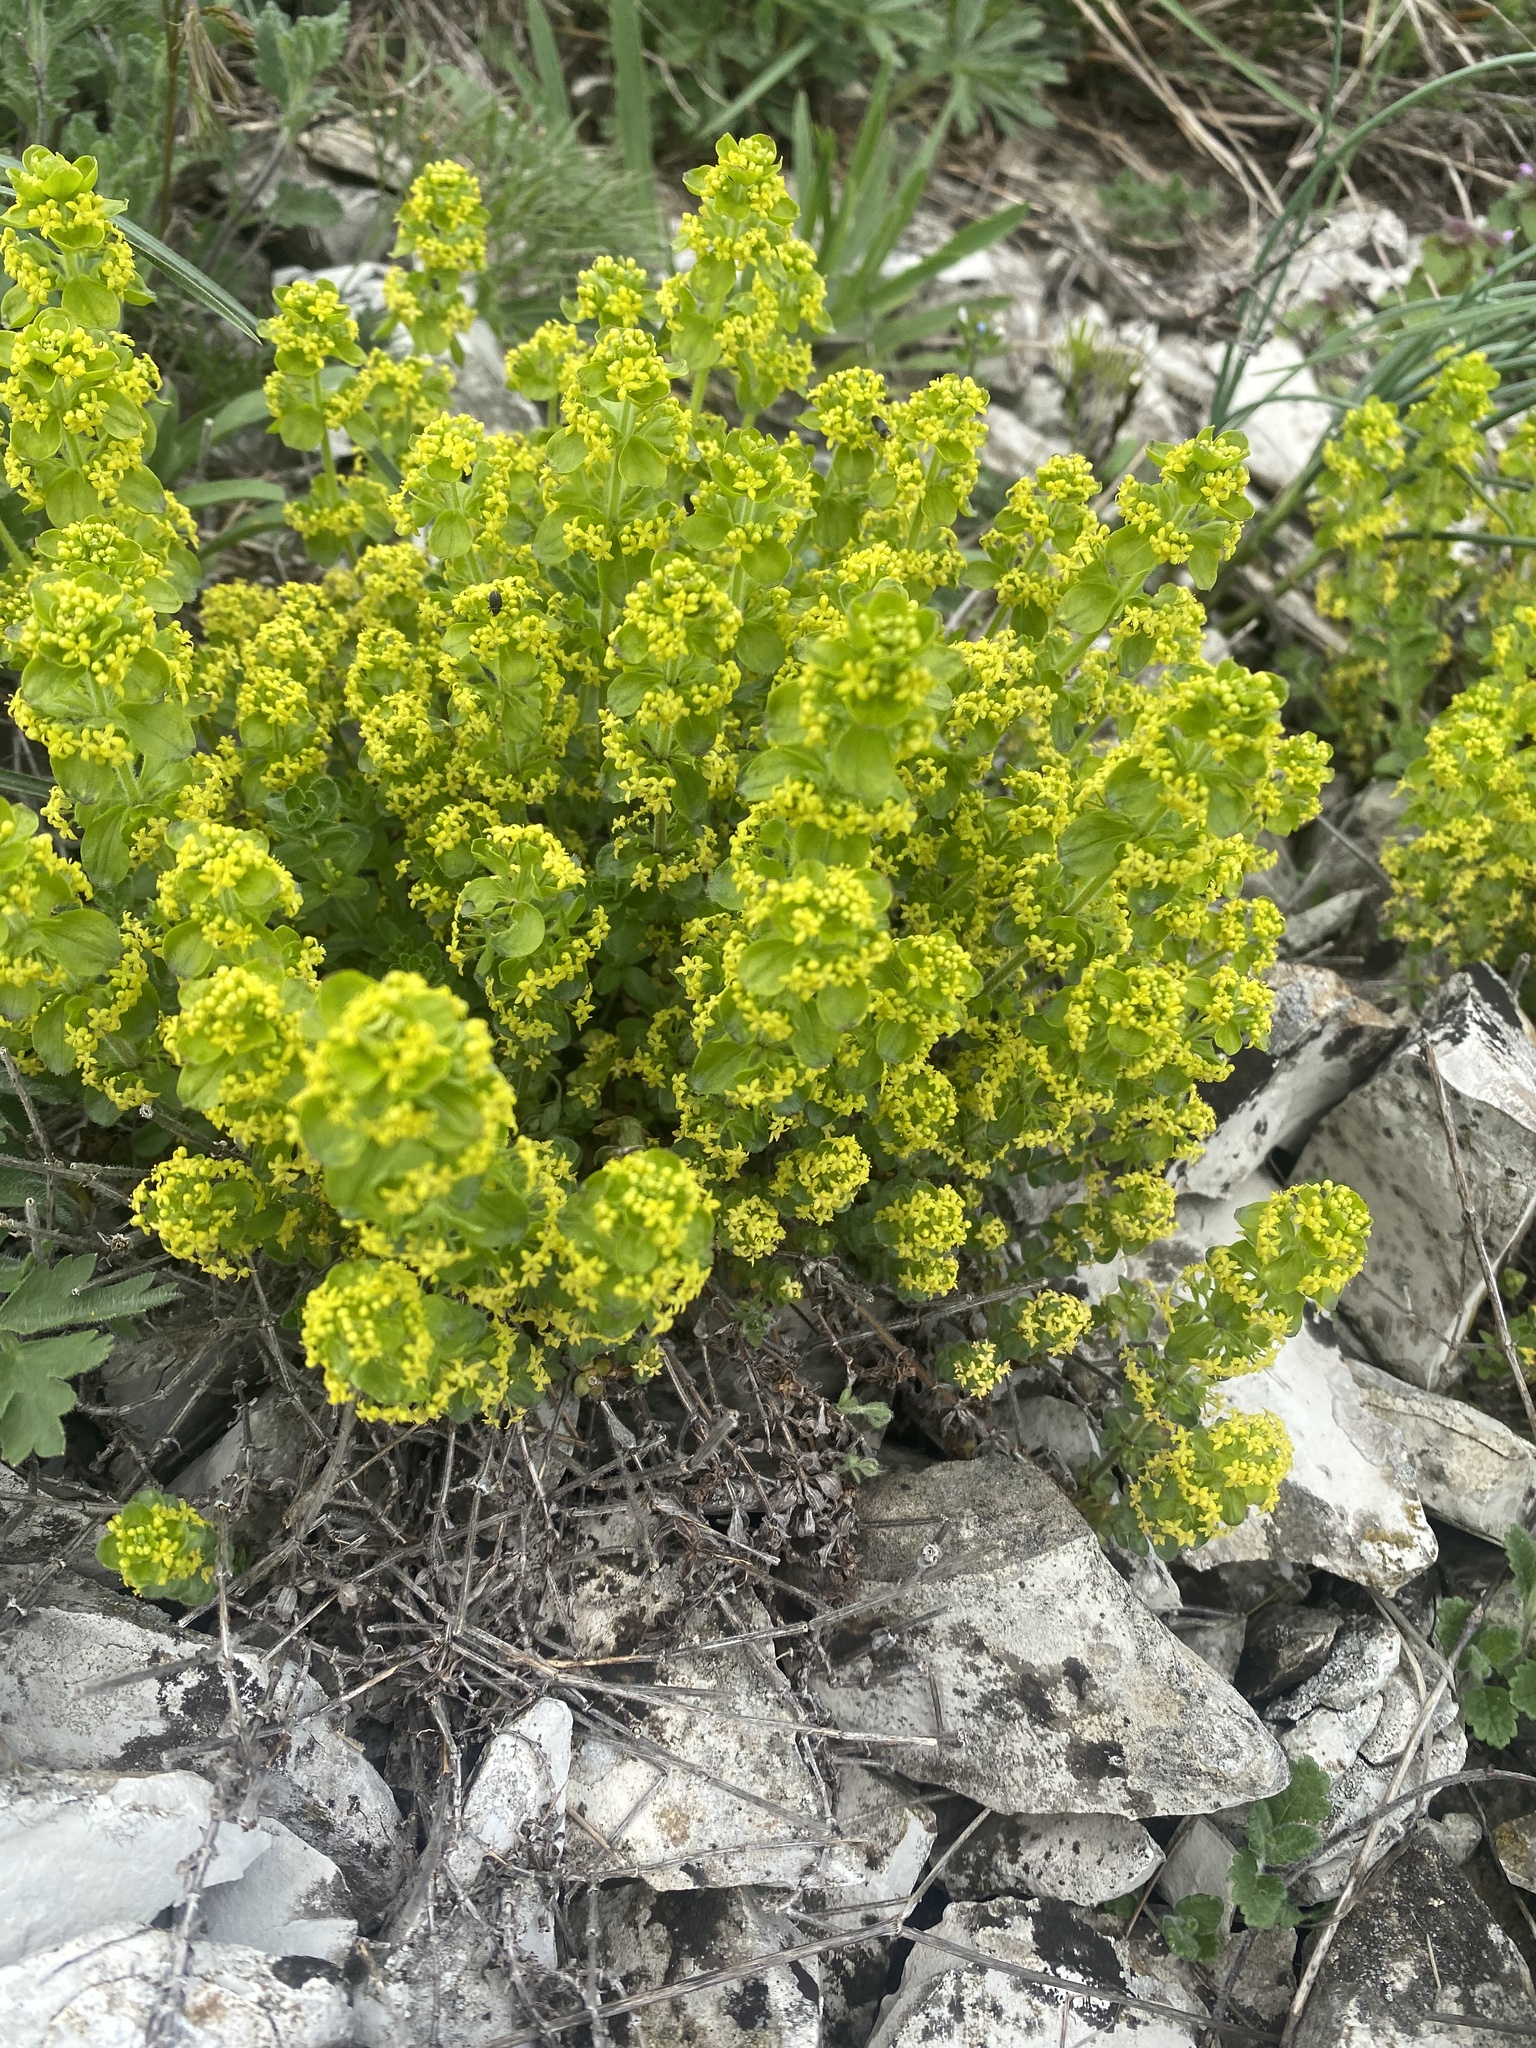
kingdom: Plantae
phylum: Tracheophyta
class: Magnoliopsida
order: Gentianales
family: Rubiaceae
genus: Cruciata
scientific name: Cruciata taurica
